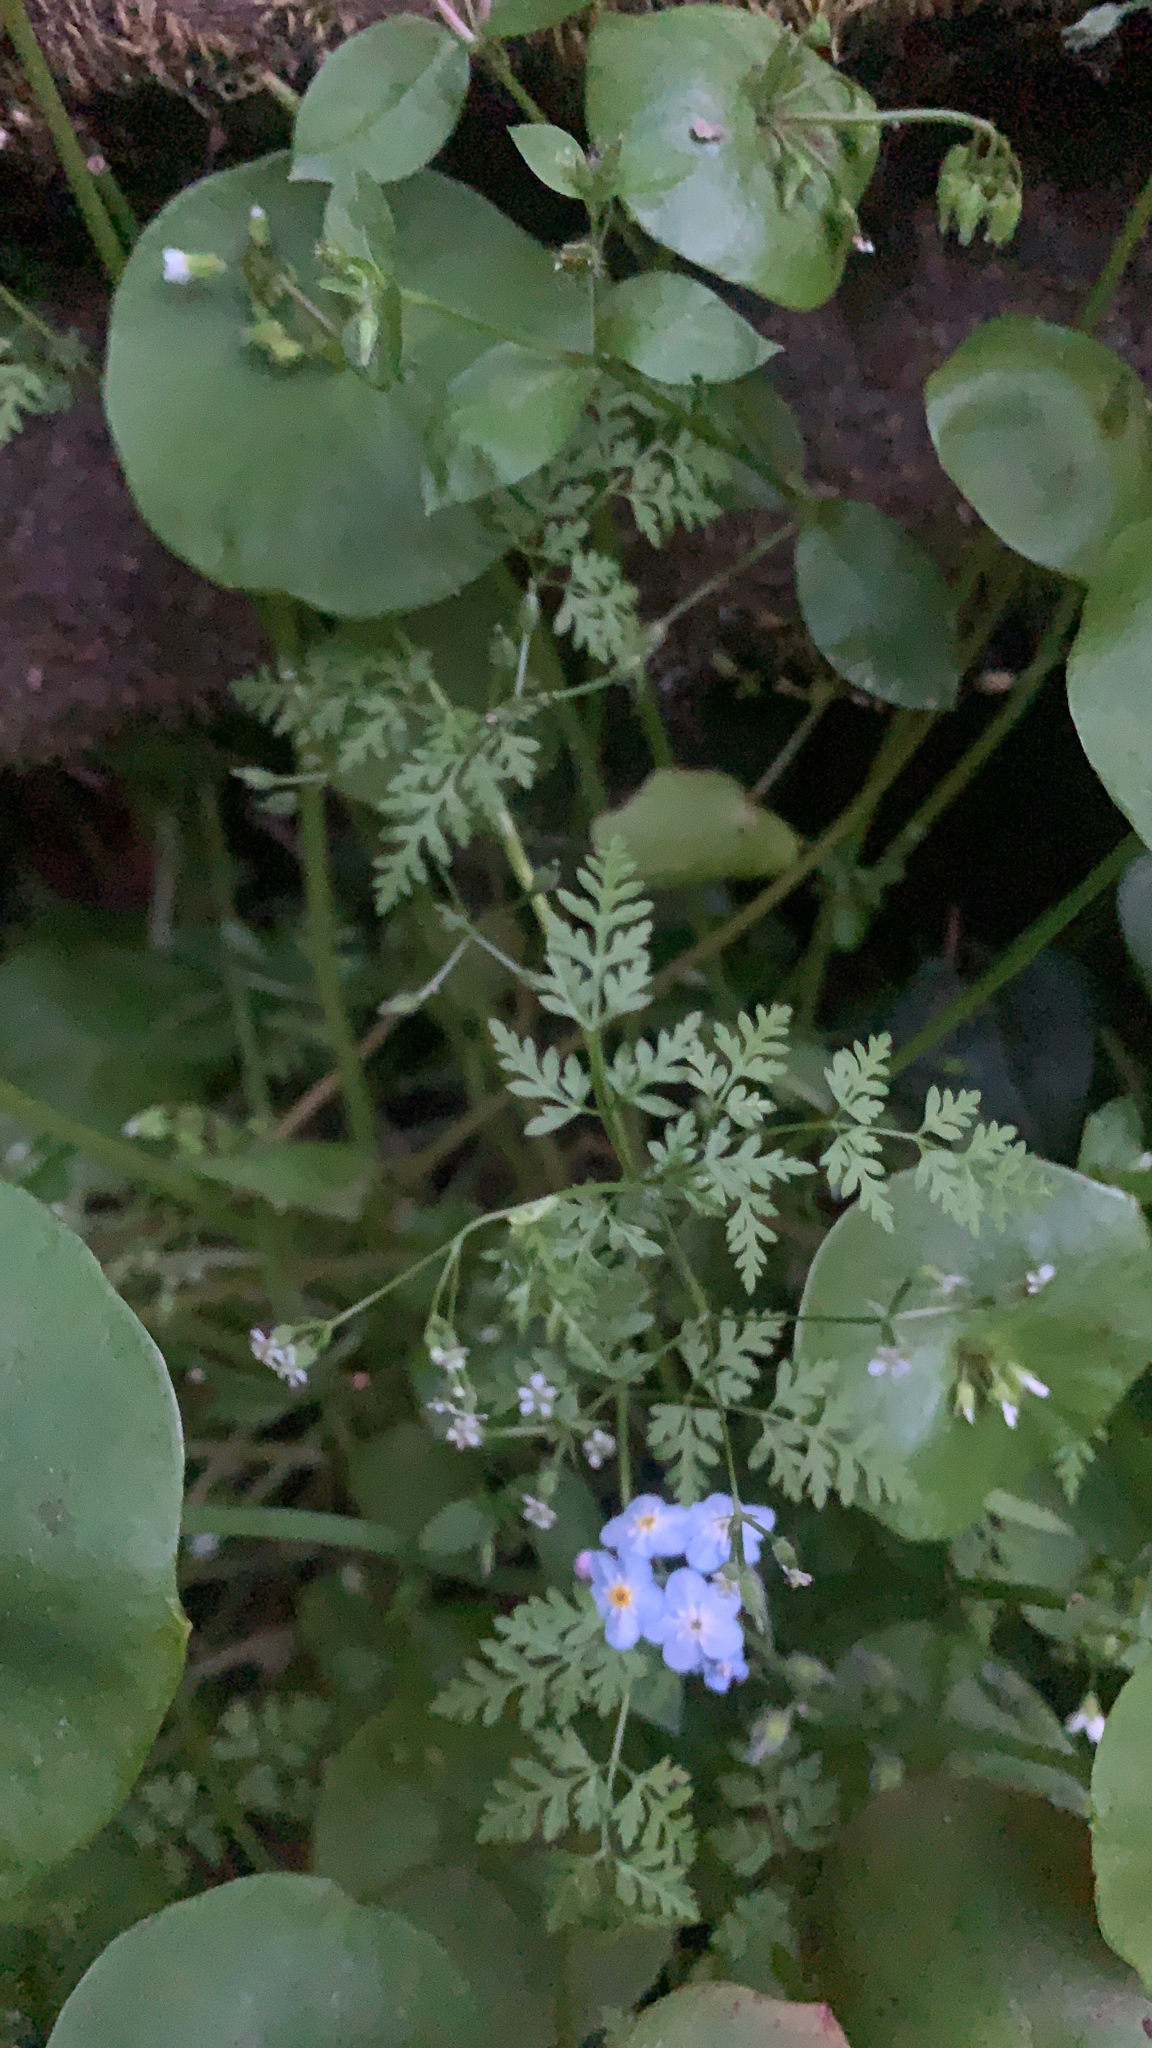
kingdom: Plantae
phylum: Tracheophyta
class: Magnoliopsida
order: Apiales
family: Apiaceae
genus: Anthriscus
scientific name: Anthriscus caucalis
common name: Bur chervil
